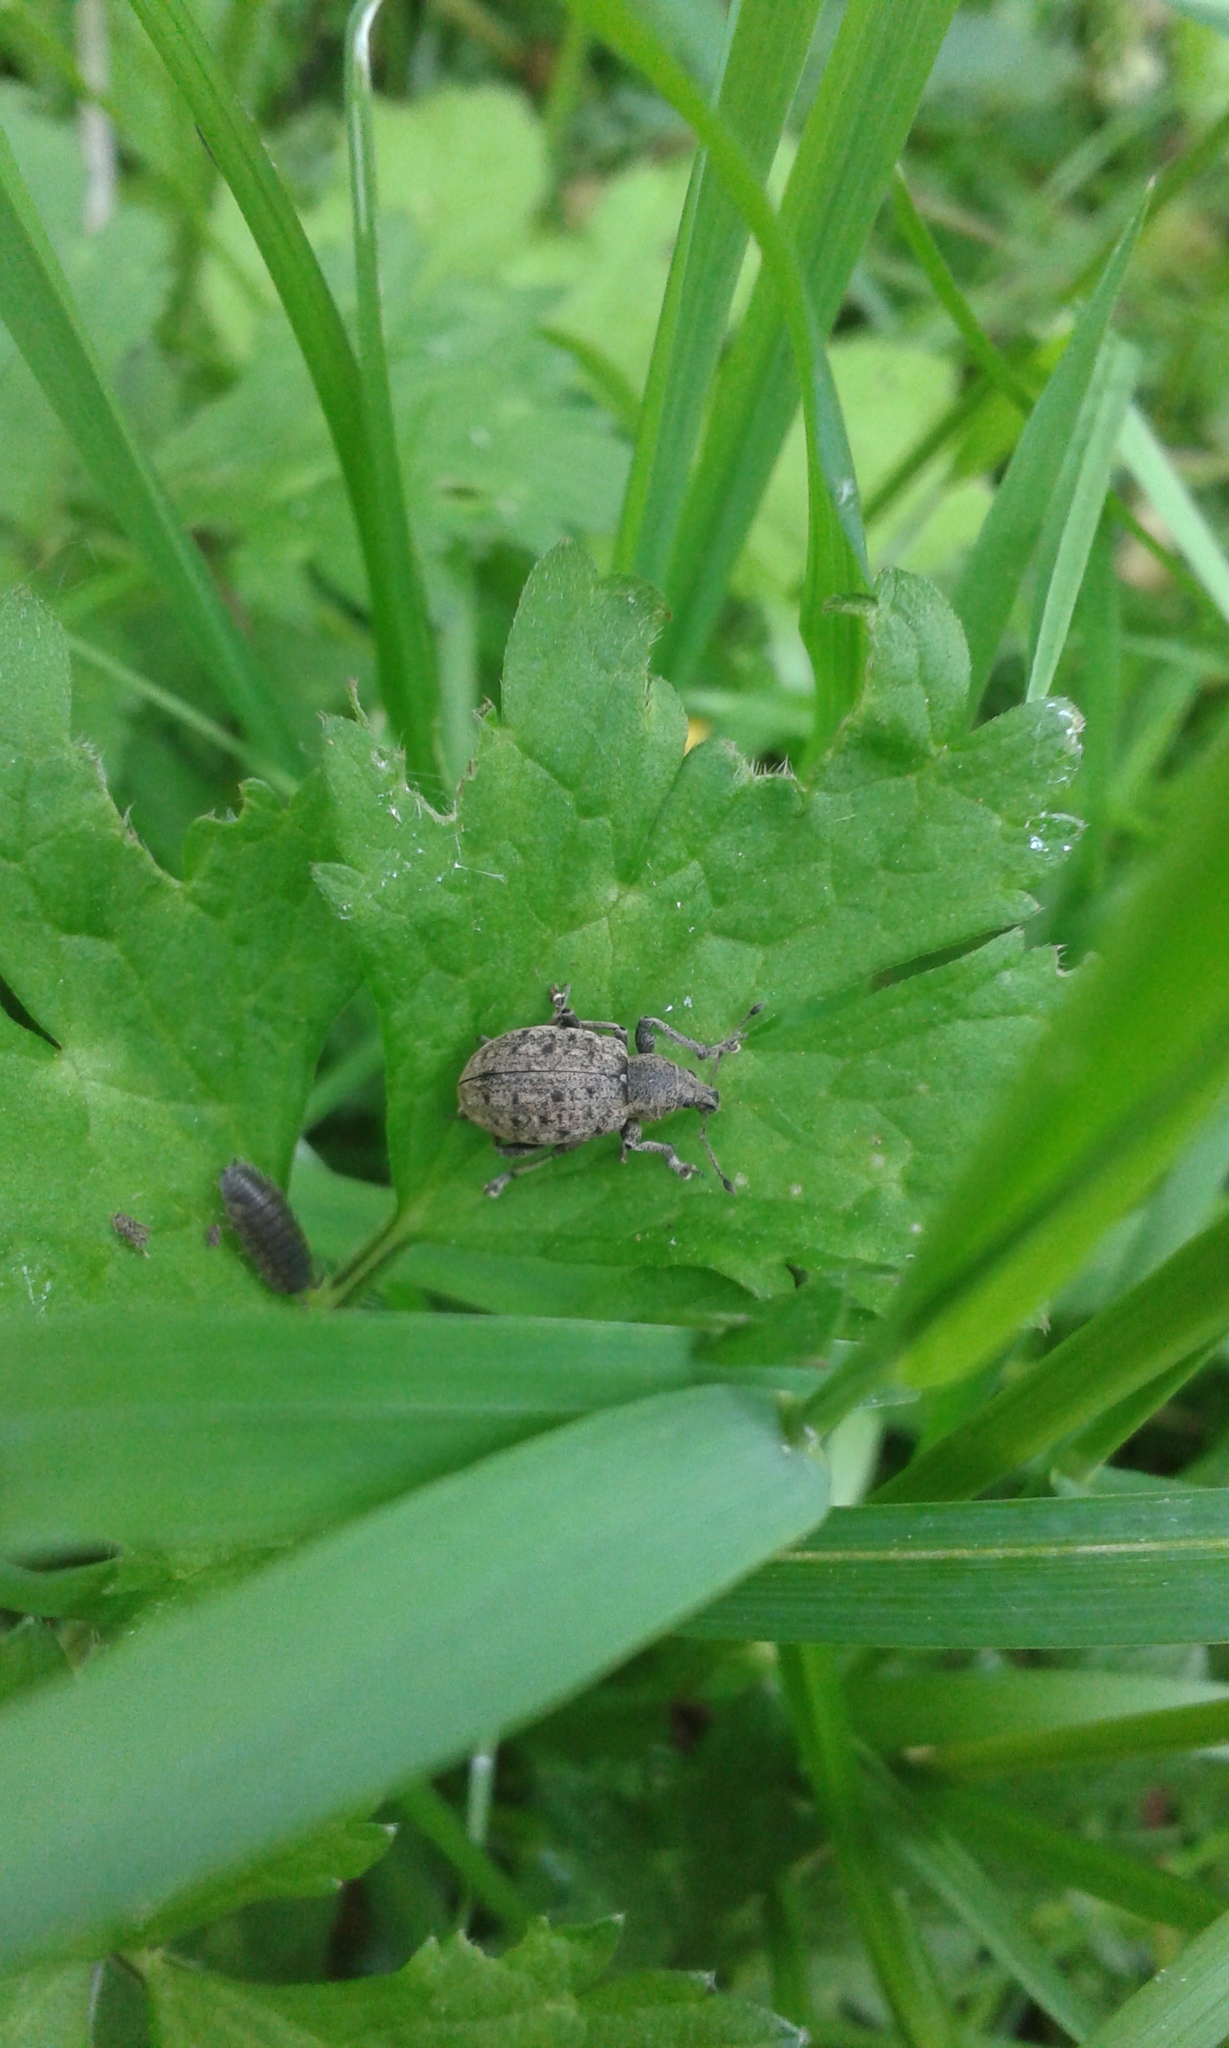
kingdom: Animalia
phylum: Arthropoda
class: Insecta
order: Coleoptera
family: Curculionidae
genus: Liophloeus
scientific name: Liophloeus tessulatus
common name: Weevil
